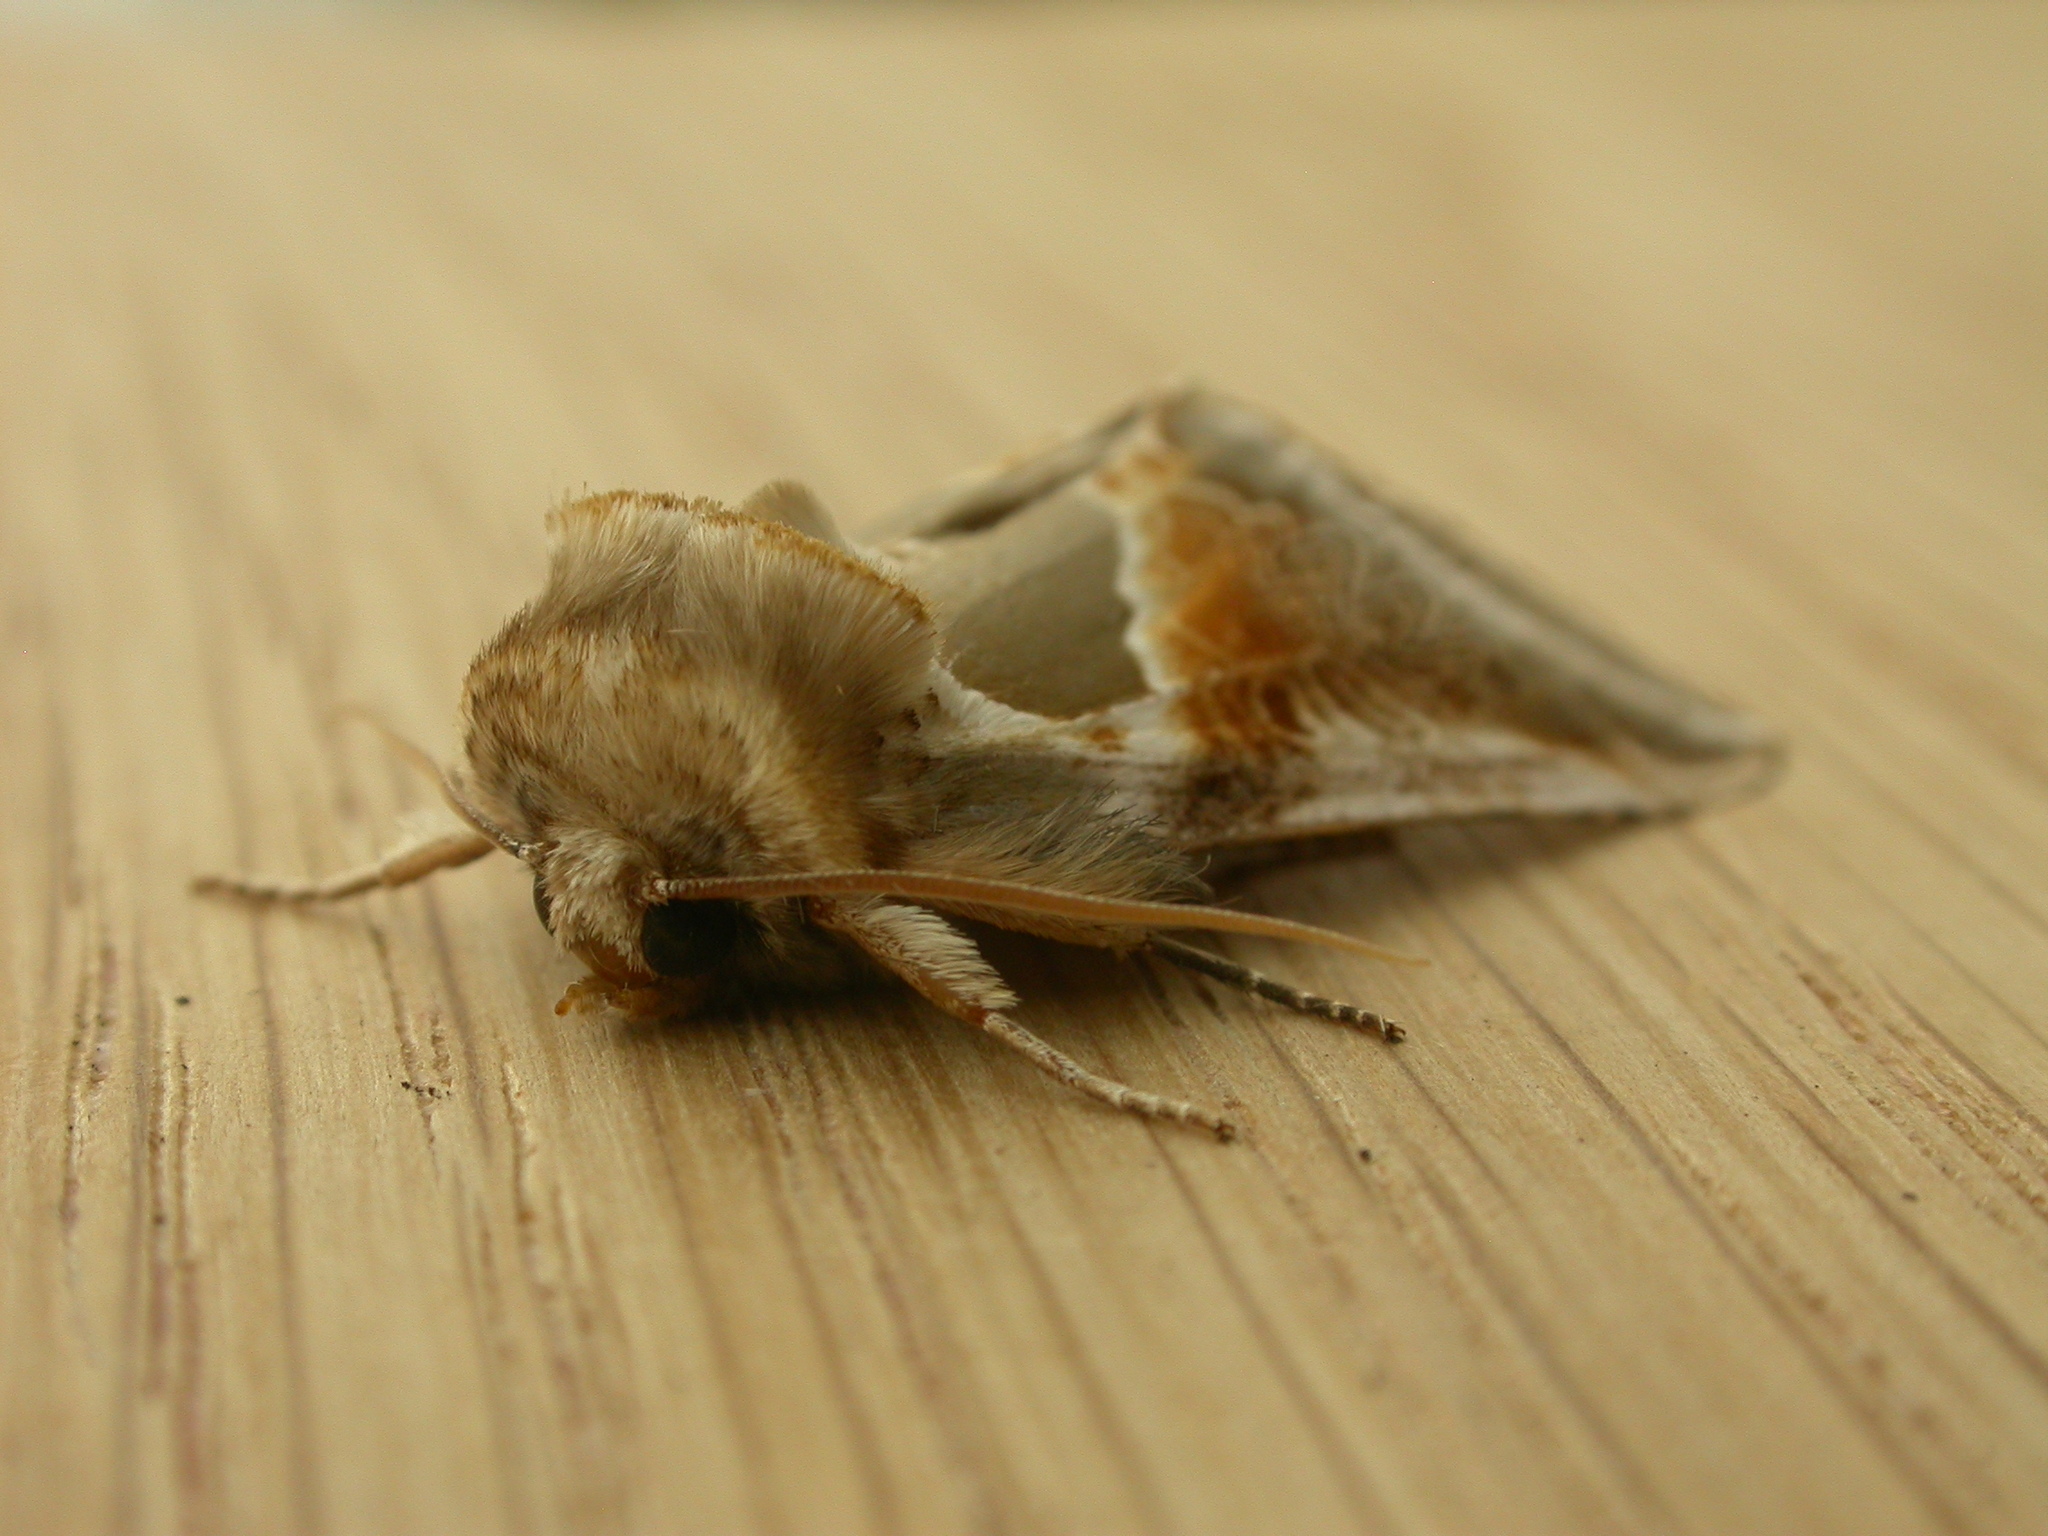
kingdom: Animalia
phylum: Arthropoda
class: Insecta
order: Lepidoptera
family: Drepanidae
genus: Habrosyne
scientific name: Habrosyne pyritoides
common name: Buff arches
